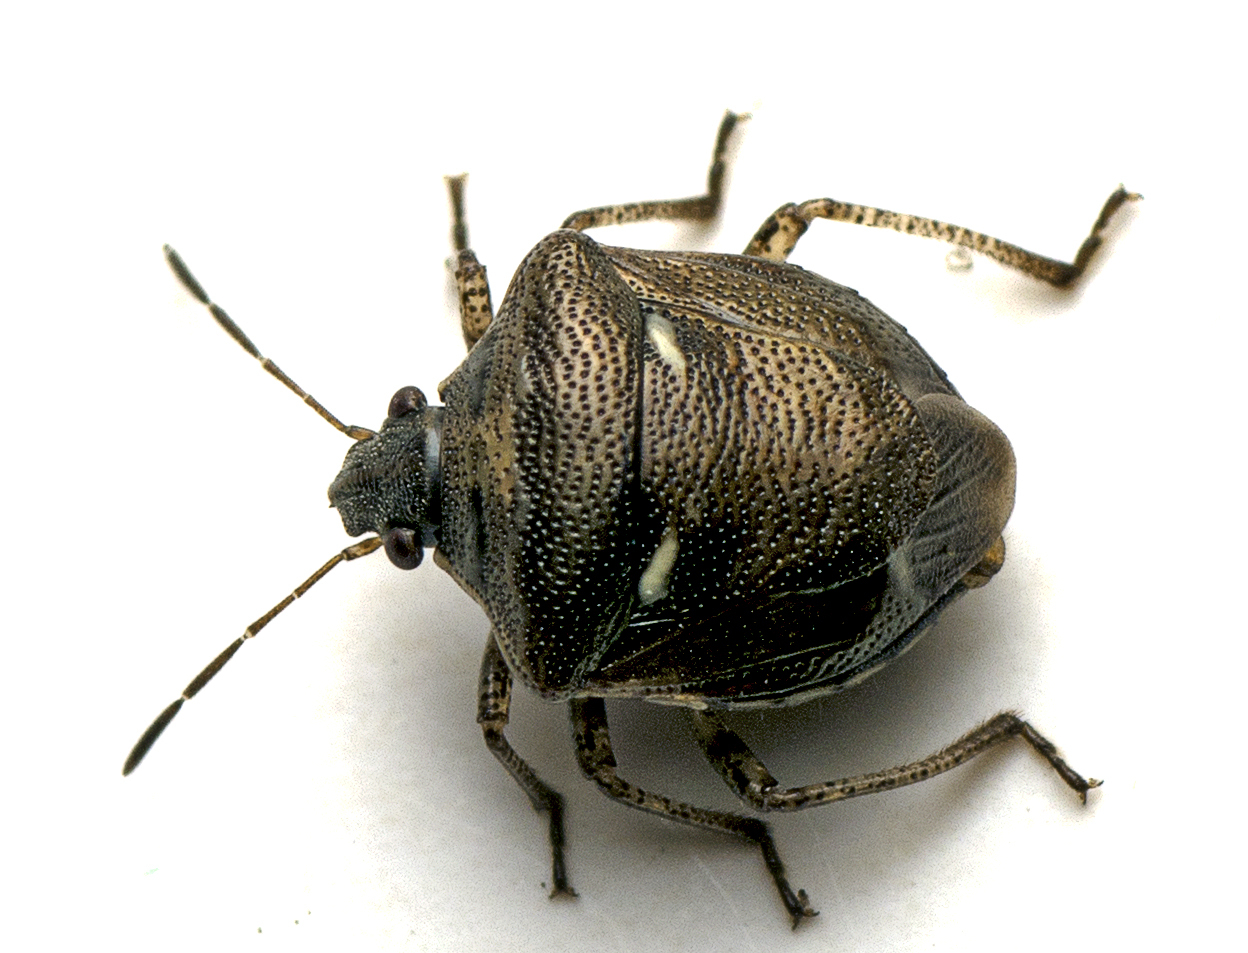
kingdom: Animalia
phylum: Arthropoda
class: Insecta
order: Hemiptera
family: Pentatomidae
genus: Eysarcoris
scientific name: Eysarcoris
